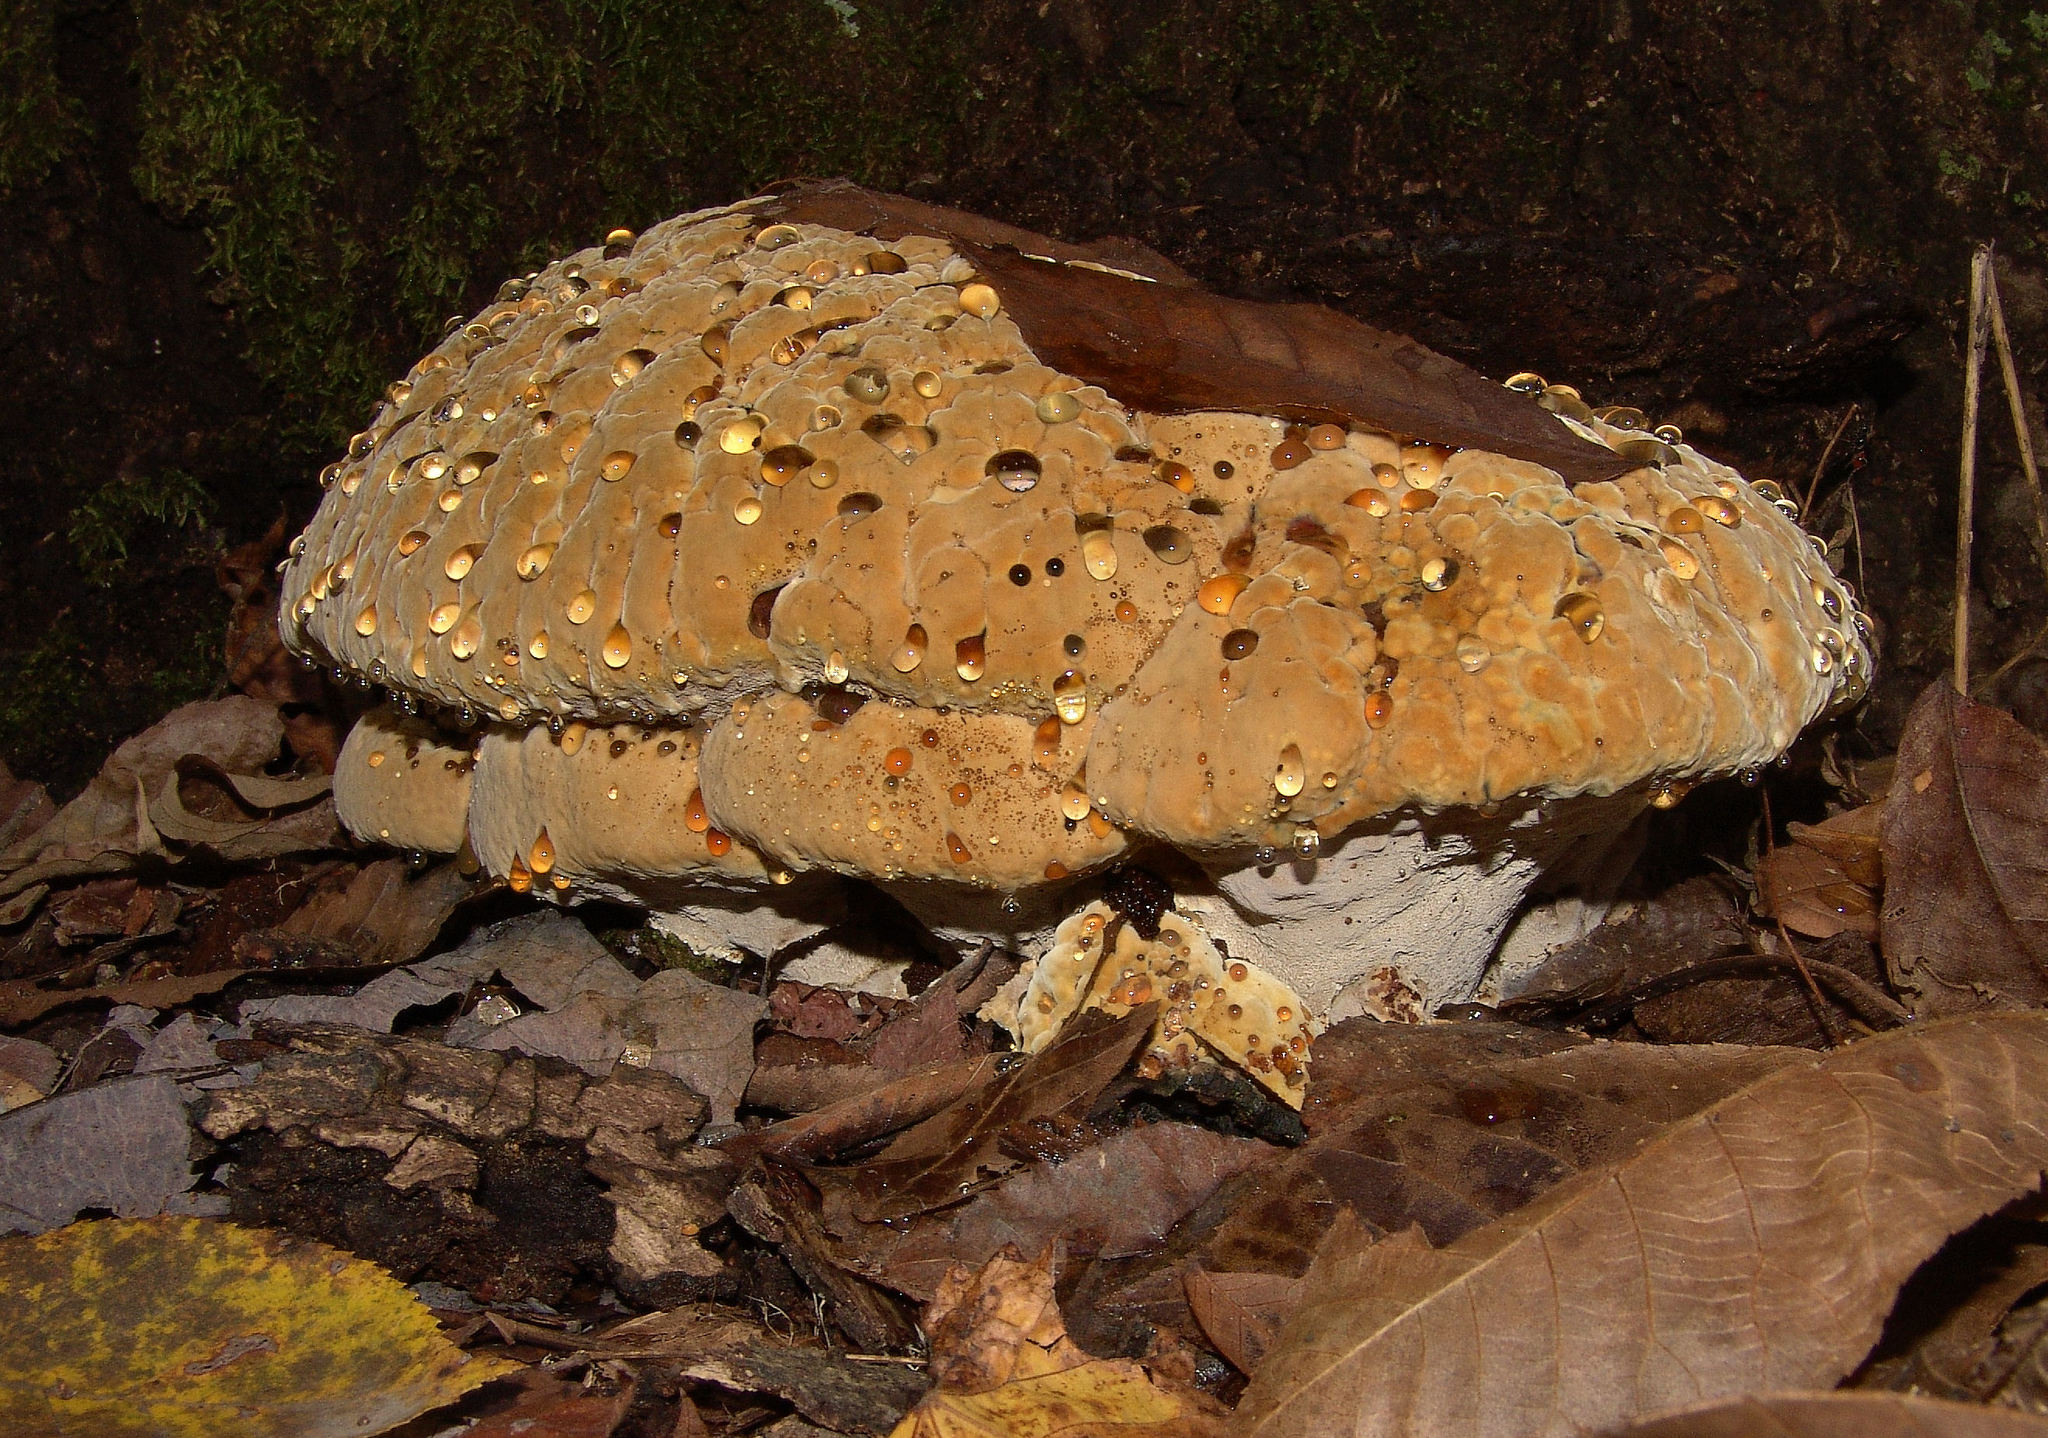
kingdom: Fungi
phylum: Basidiomycota
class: Agaricomycetes
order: Hymenochaetales
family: Hymenochaetaceae
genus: Pseudoinonotus
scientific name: Pseudoinonotus dryadeus
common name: Oak bracket
